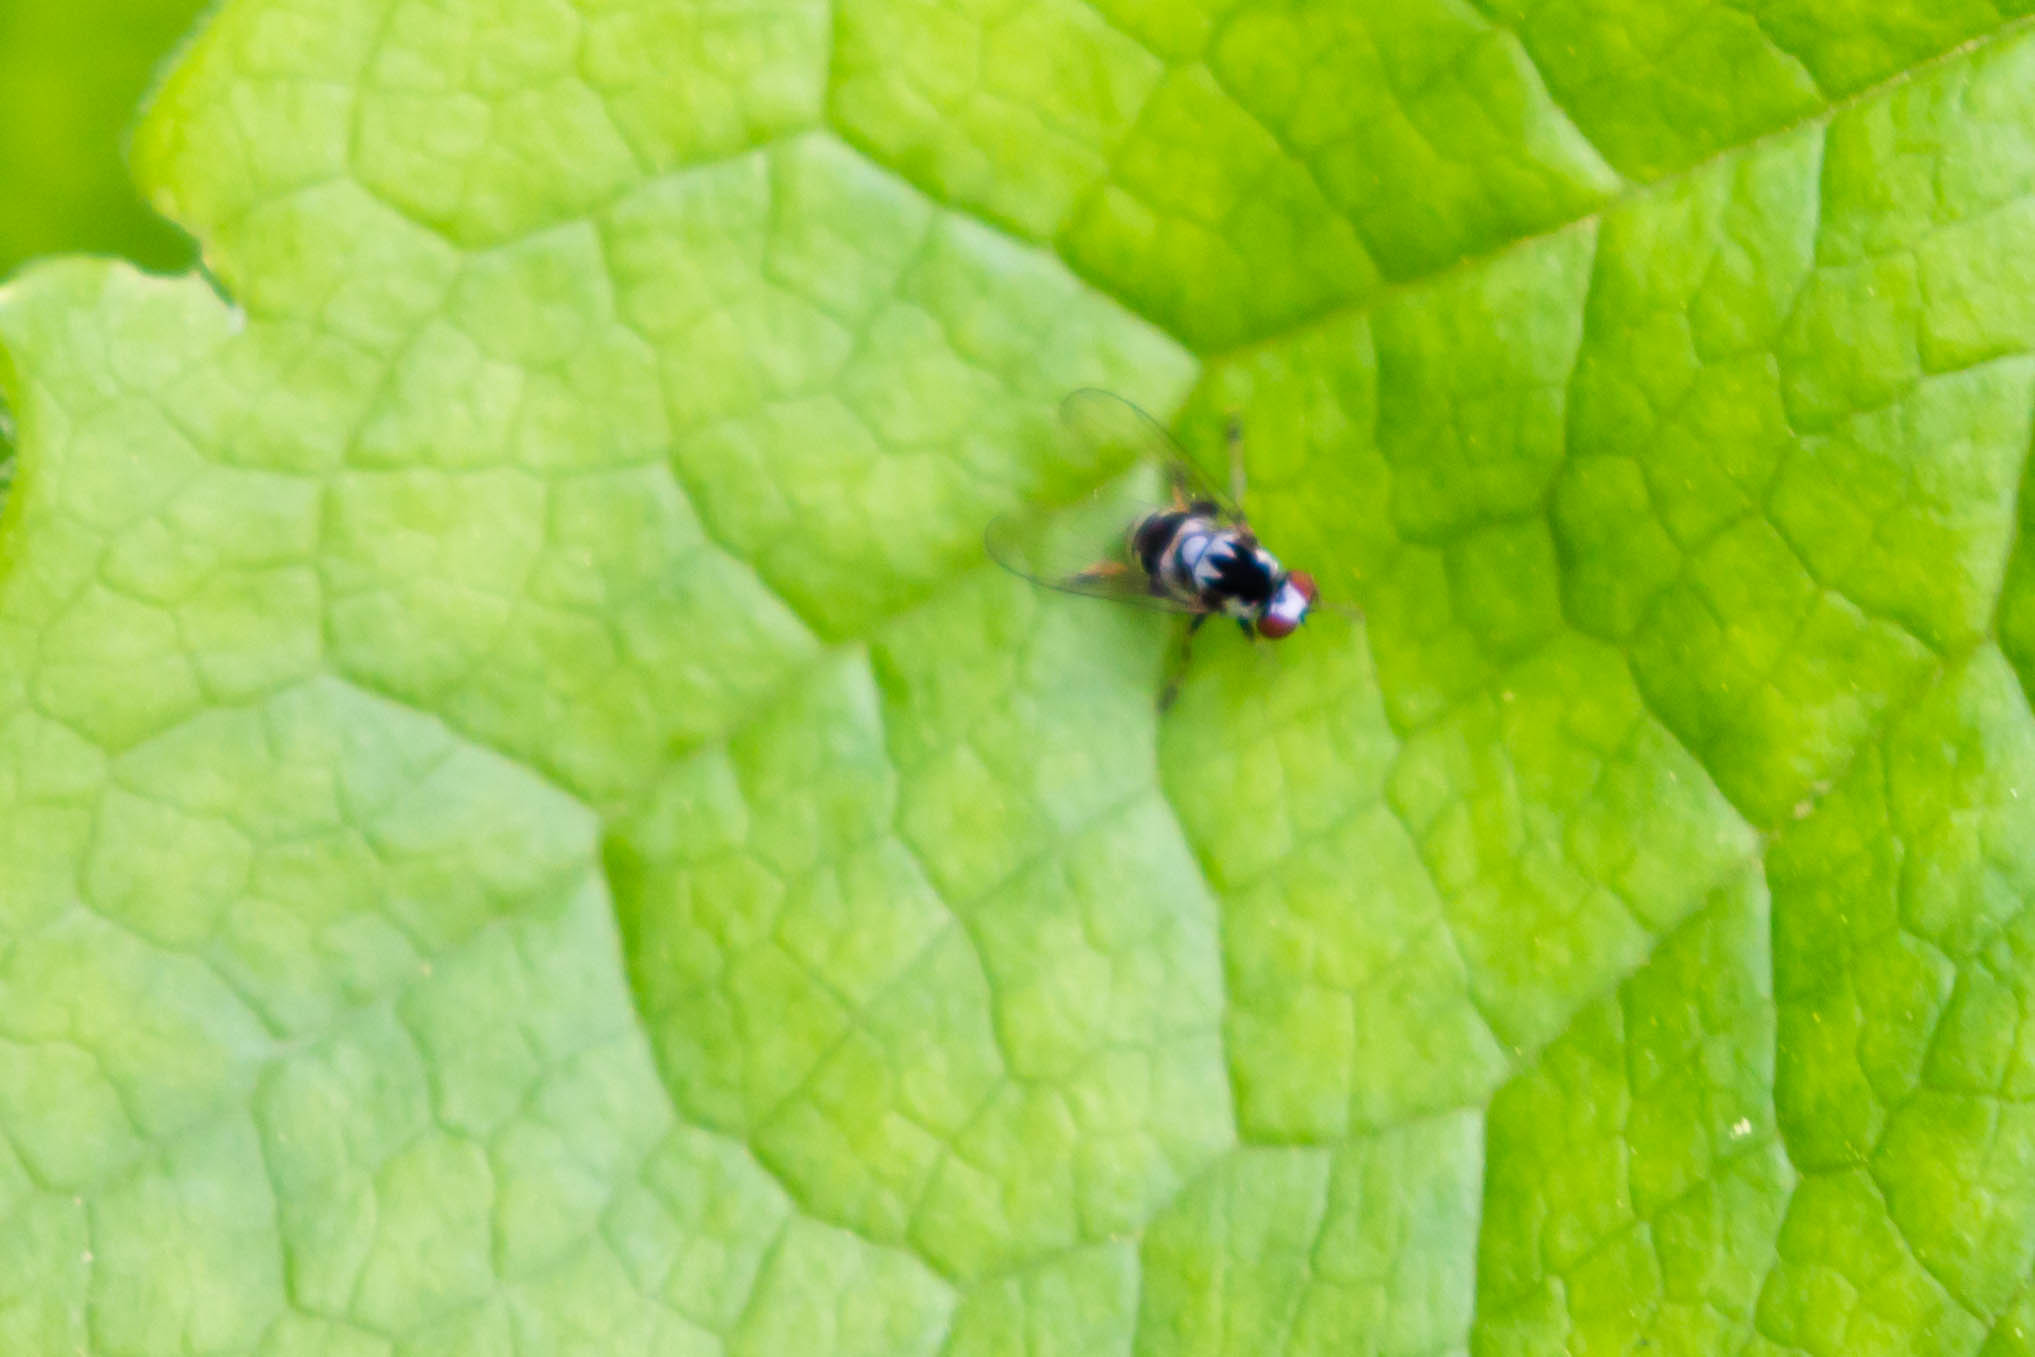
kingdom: Animalia
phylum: Arthropoda
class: Insecta
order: Diptera
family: Platypezidae
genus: Polyporivora
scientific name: Polyporivora polypori
